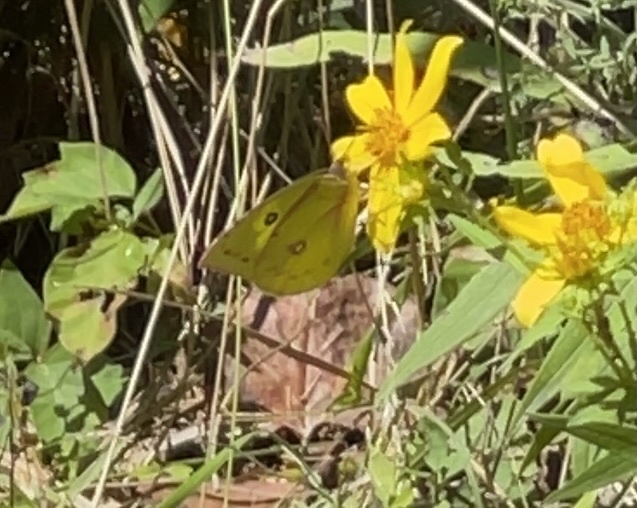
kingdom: Animalia
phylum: Arthropoda
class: Insecta
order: Lepidoptera
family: Pieridae
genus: Zerene
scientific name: Zerene cesonia
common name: Southern dogface
